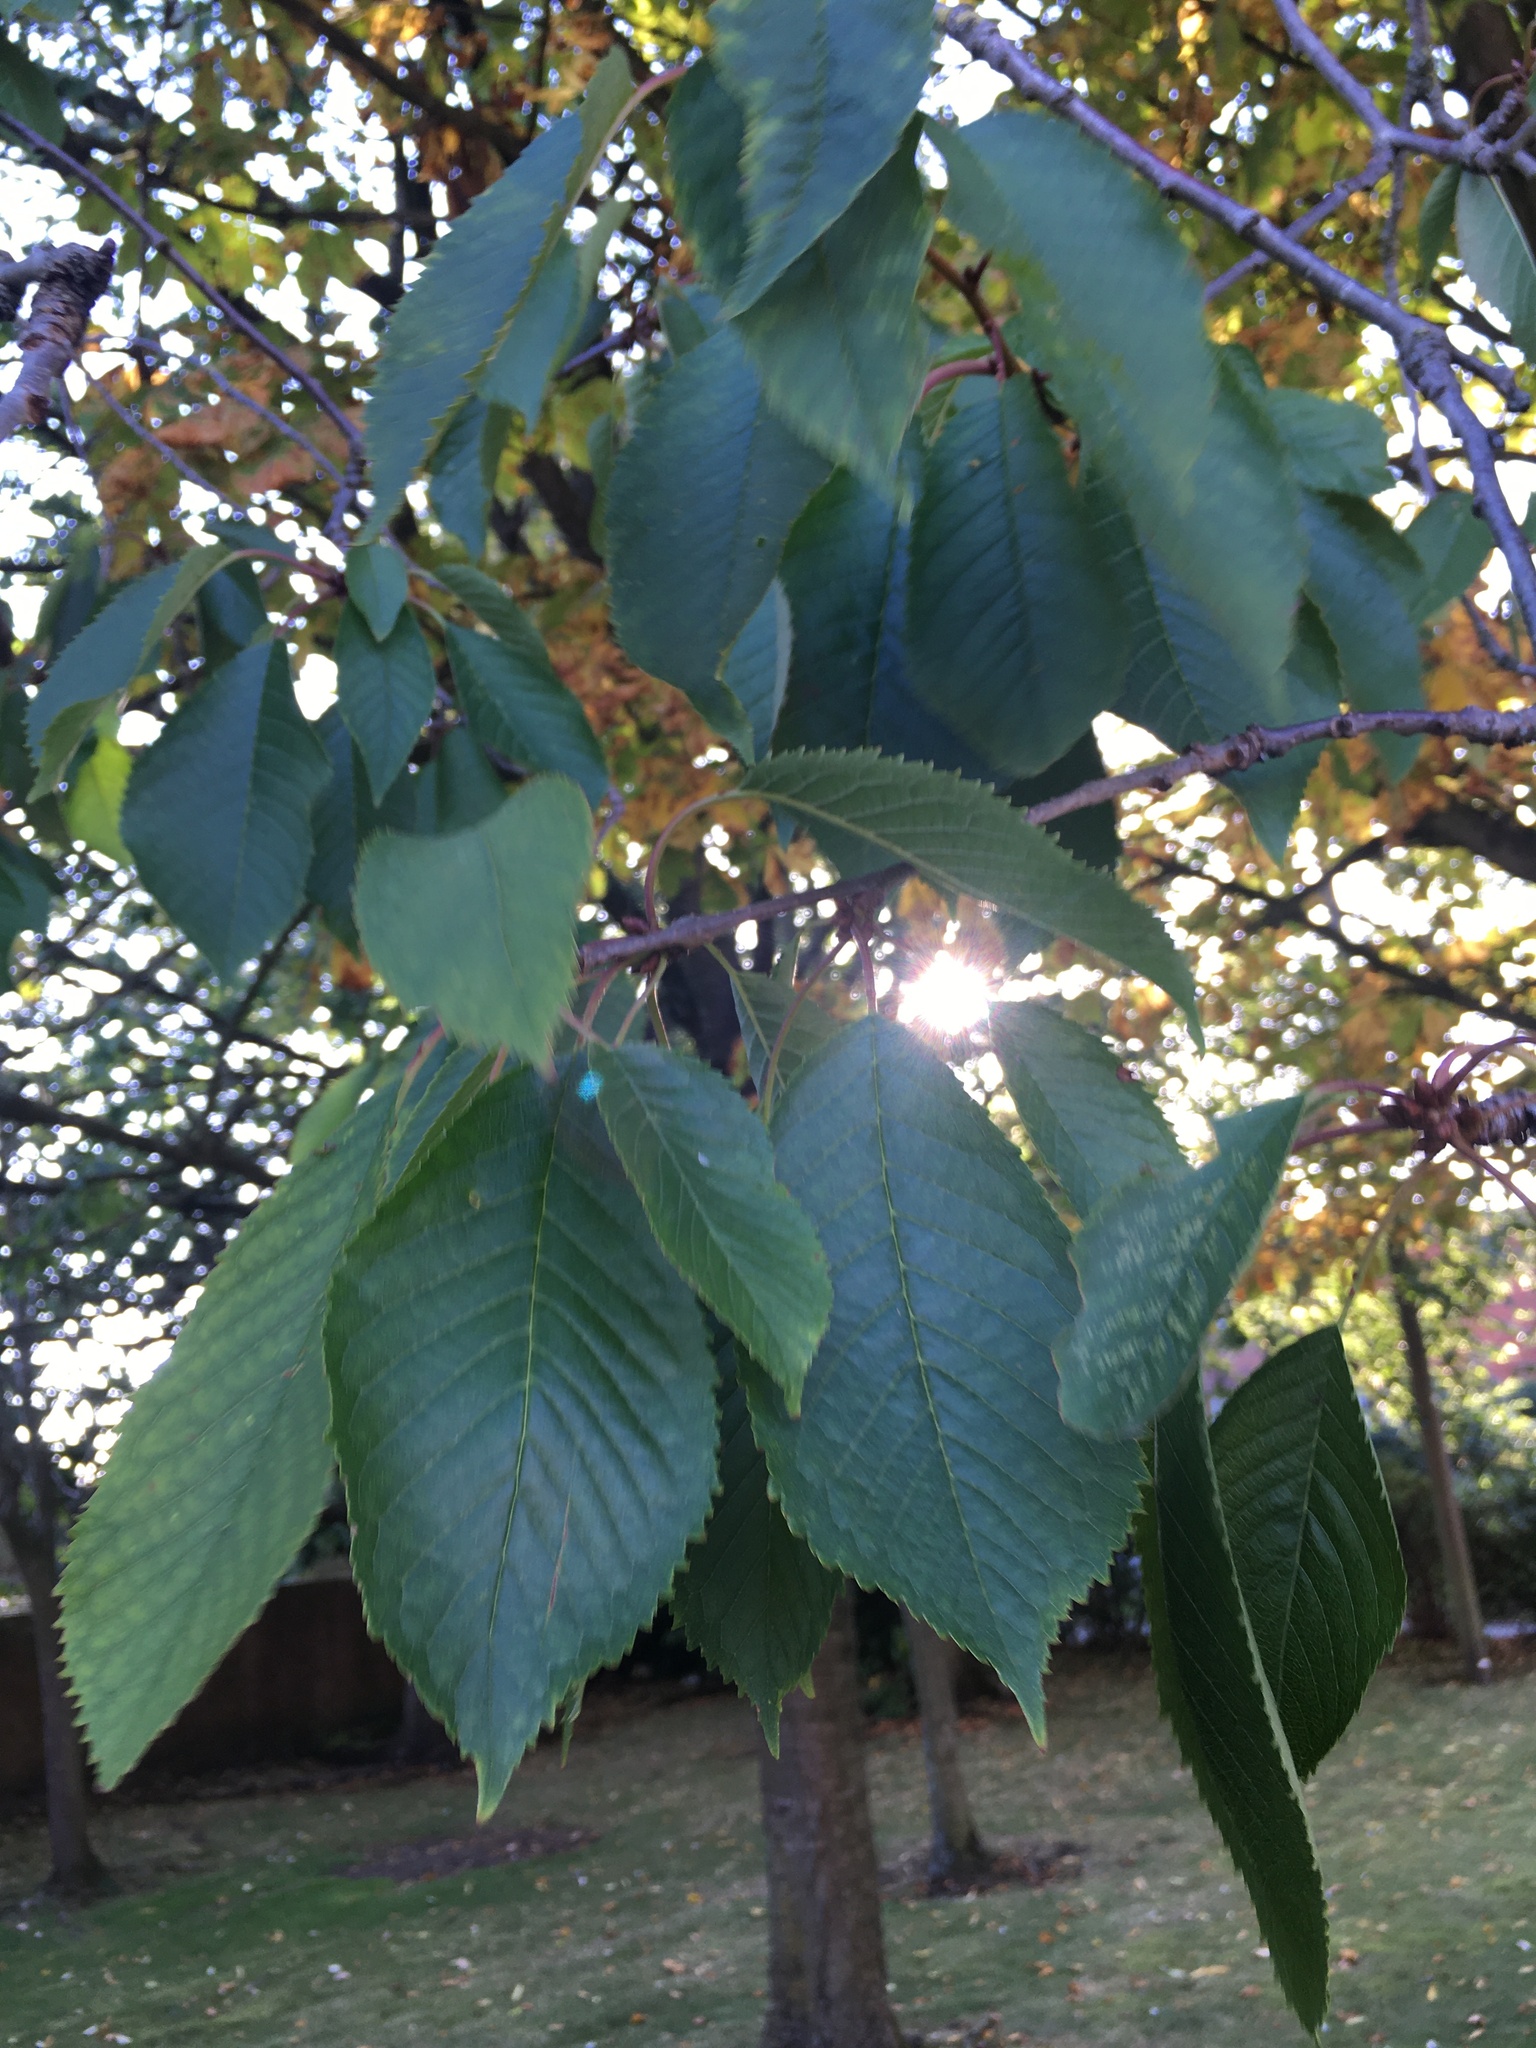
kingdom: Plantae
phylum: Tracheophyta
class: Magnoliopsida
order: Rosales
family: Rosaceae
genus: Prunus
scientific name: Prunus avium
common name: Sweet cherry
